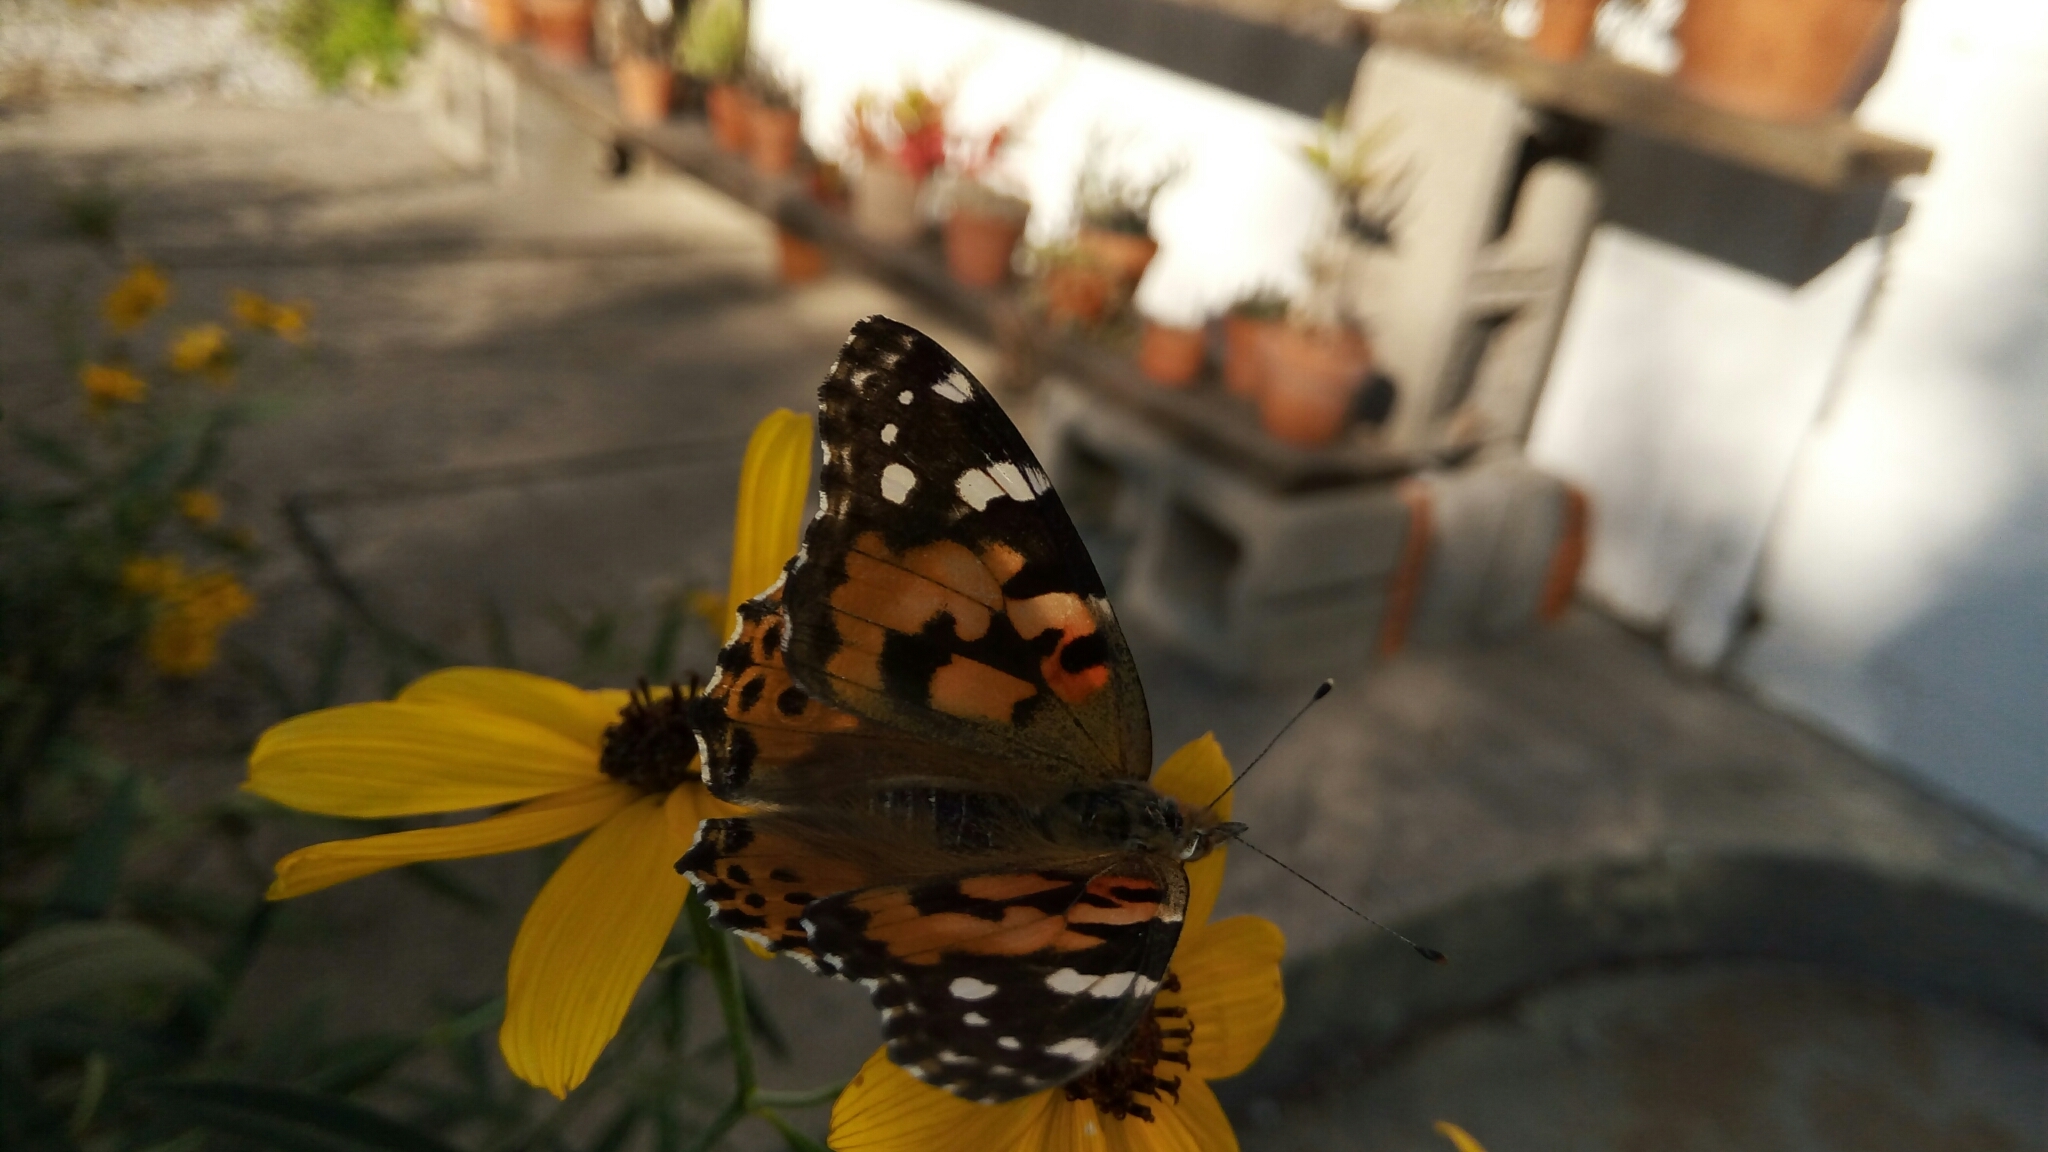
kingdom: Animalia
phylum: Arthropoda
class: Insecta
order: Lepidoptera
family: Nymphalidae
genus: Vanessa
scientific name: Vanessa cardui
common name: Painted lady
